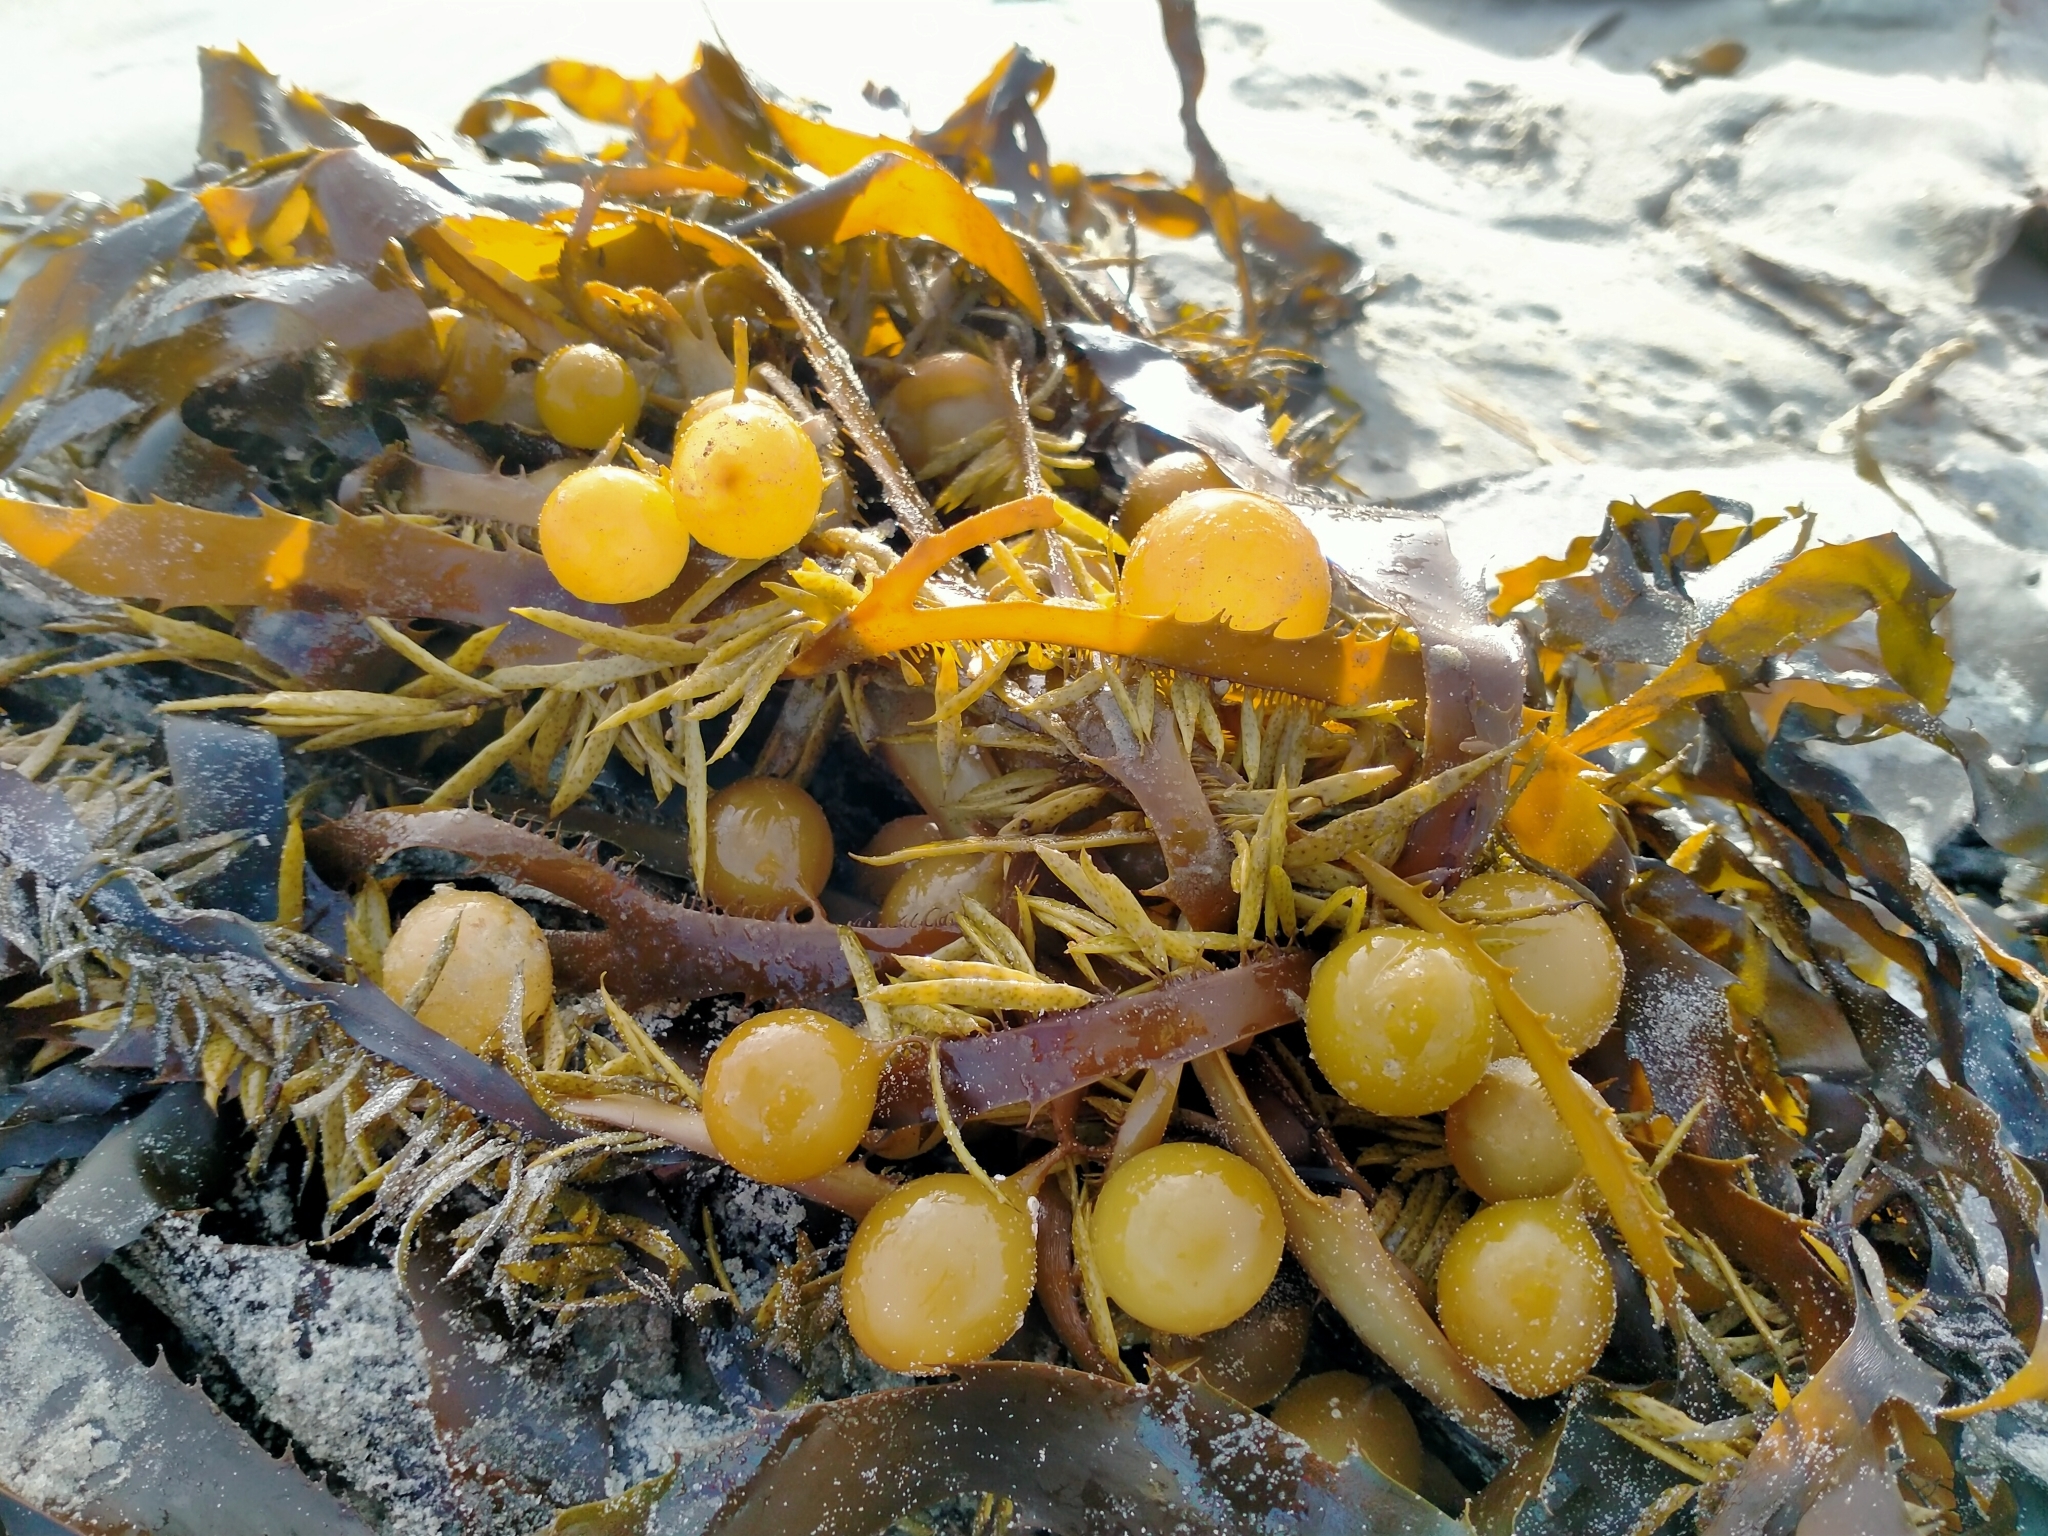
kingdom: Chromista
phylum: Ochrophyta
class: Phaeophyceae
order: Fucales
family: Seirococcaceae
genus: Marginariella
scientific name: Marginariella urvilliana
